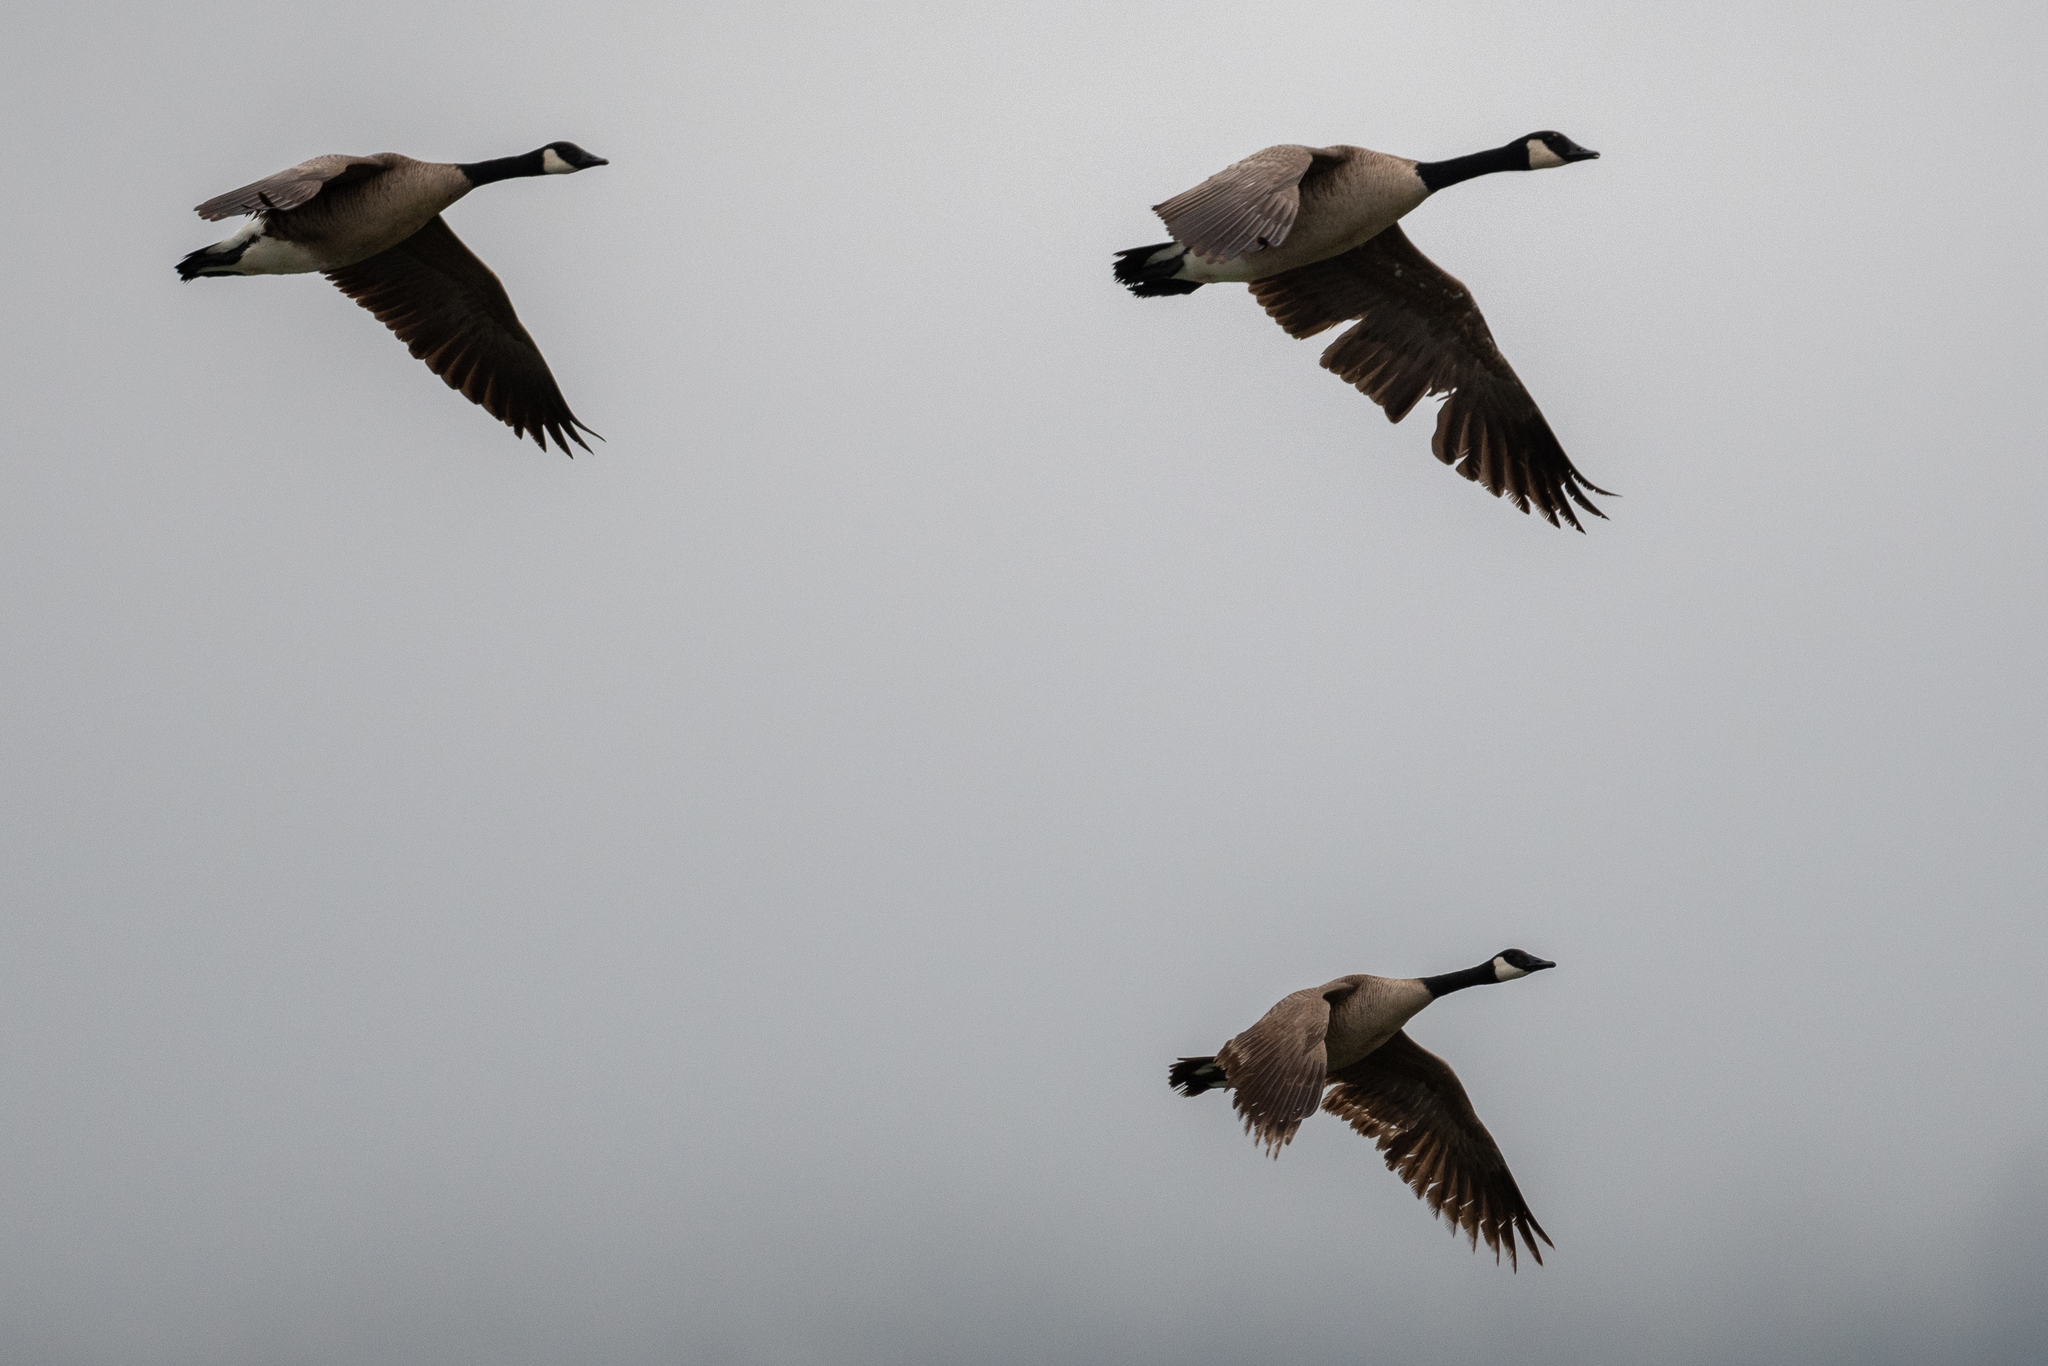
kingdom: Animalia
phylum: Chordata
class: Aves
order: Anseriformes
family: Anatidae
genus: Branta
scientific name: Branta canadensis
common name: Canada goose
